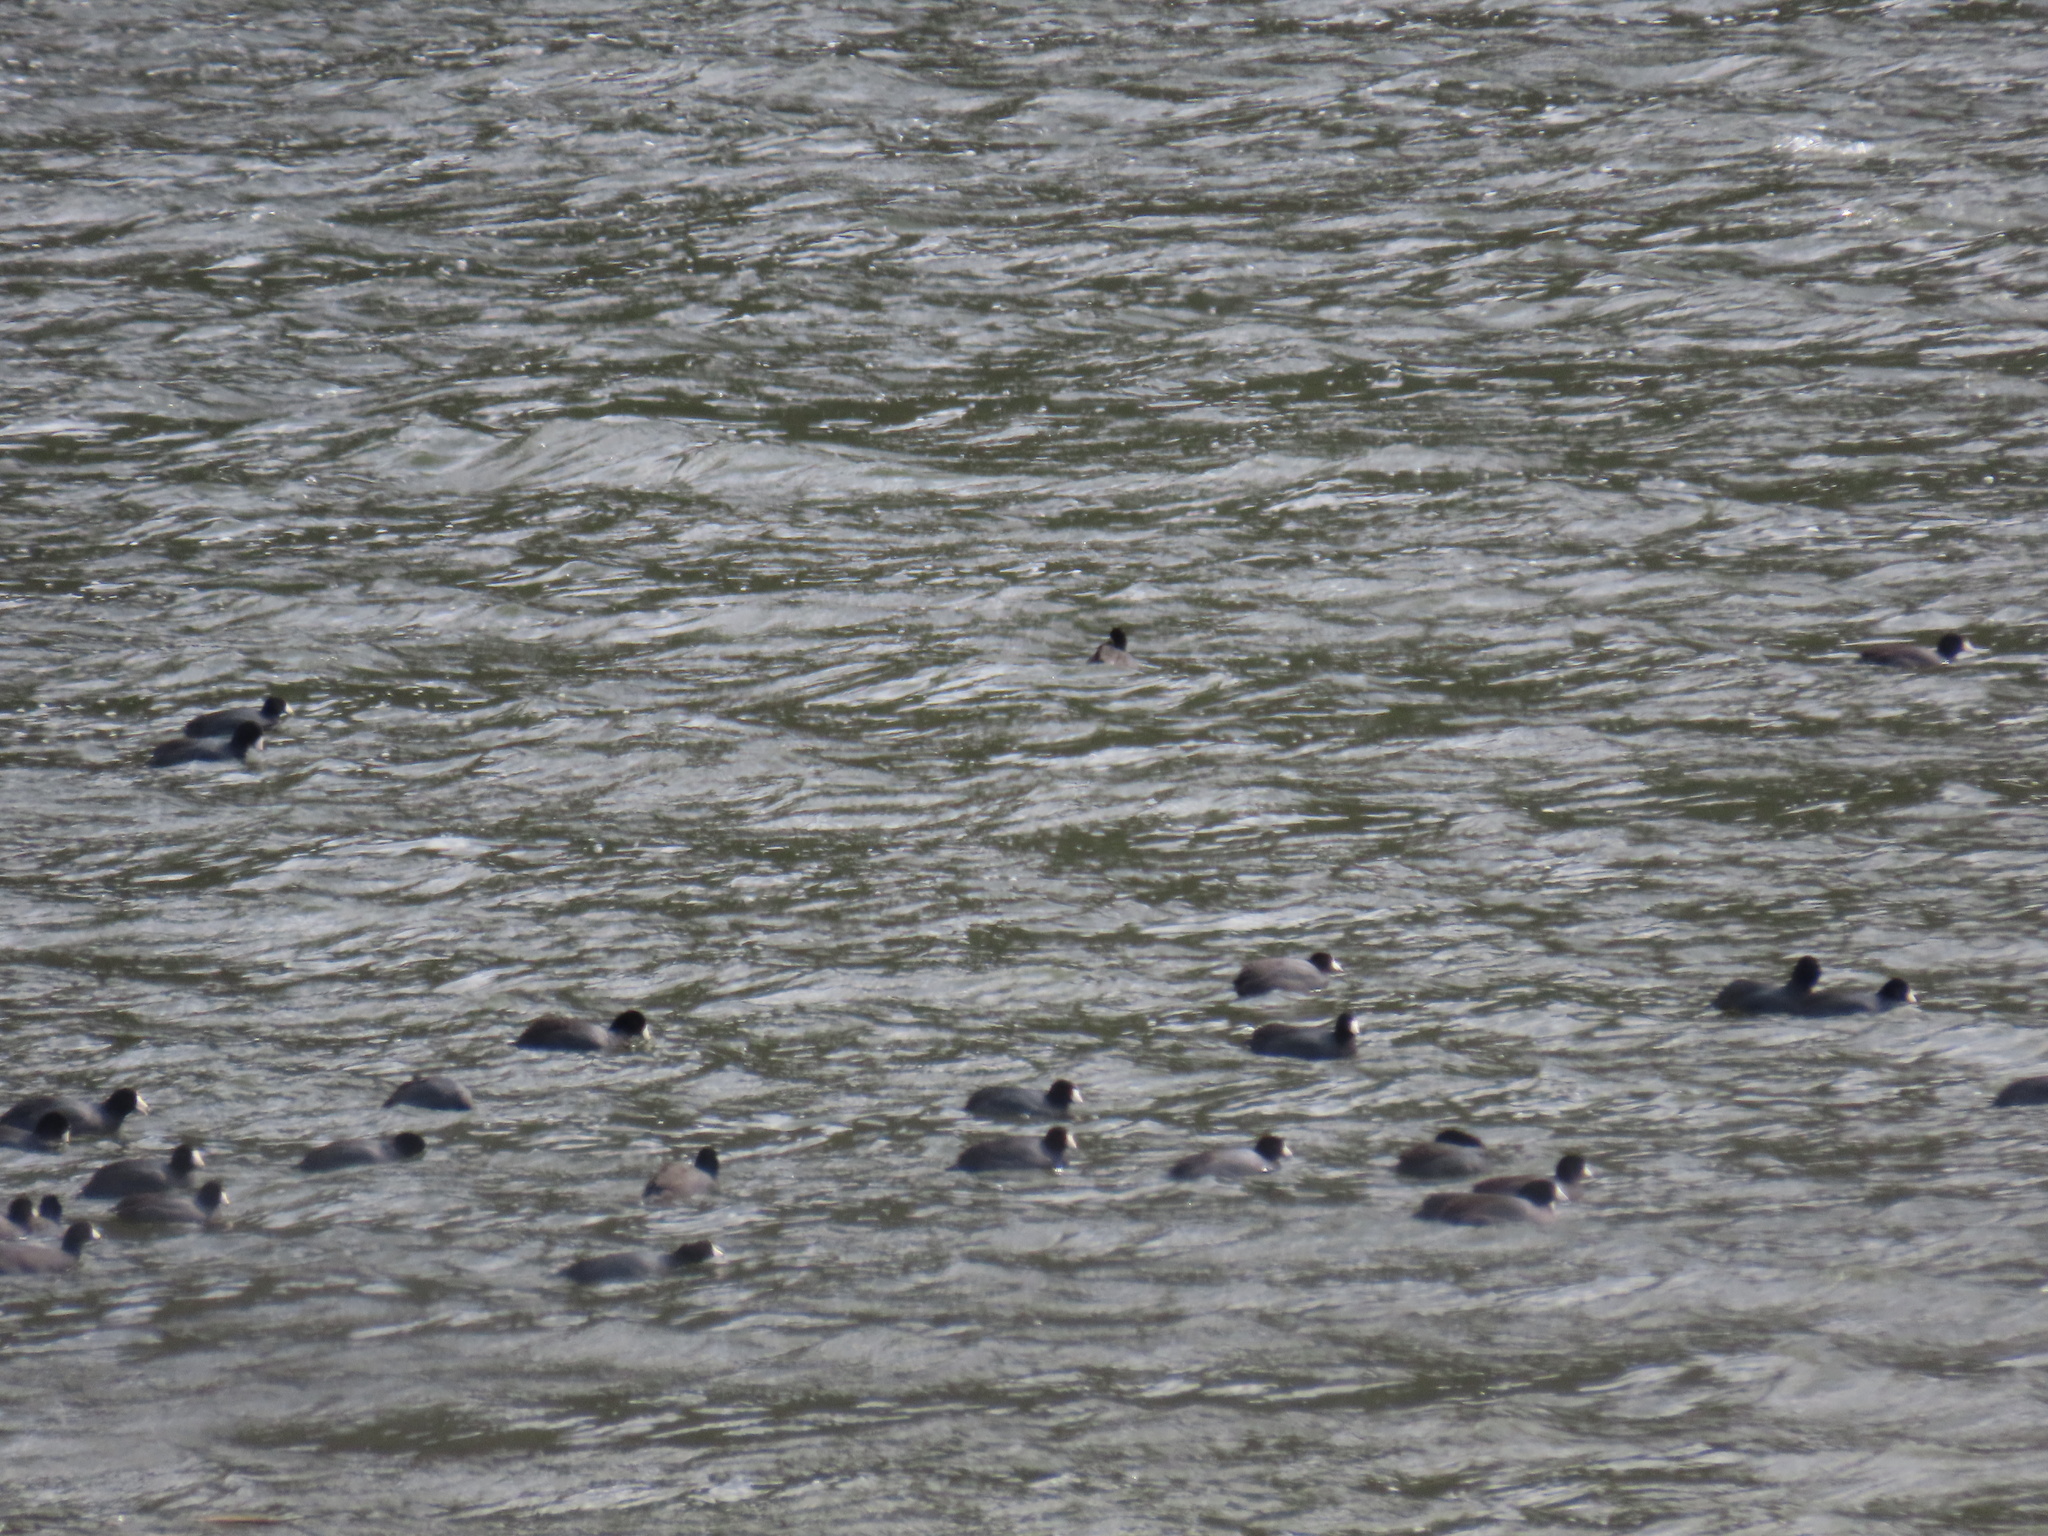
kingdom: Animalia
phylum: Chordata
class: Aves
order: Gruiformes
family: Rallidae
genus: Fulica
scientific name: Fulica americana
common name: American coot
